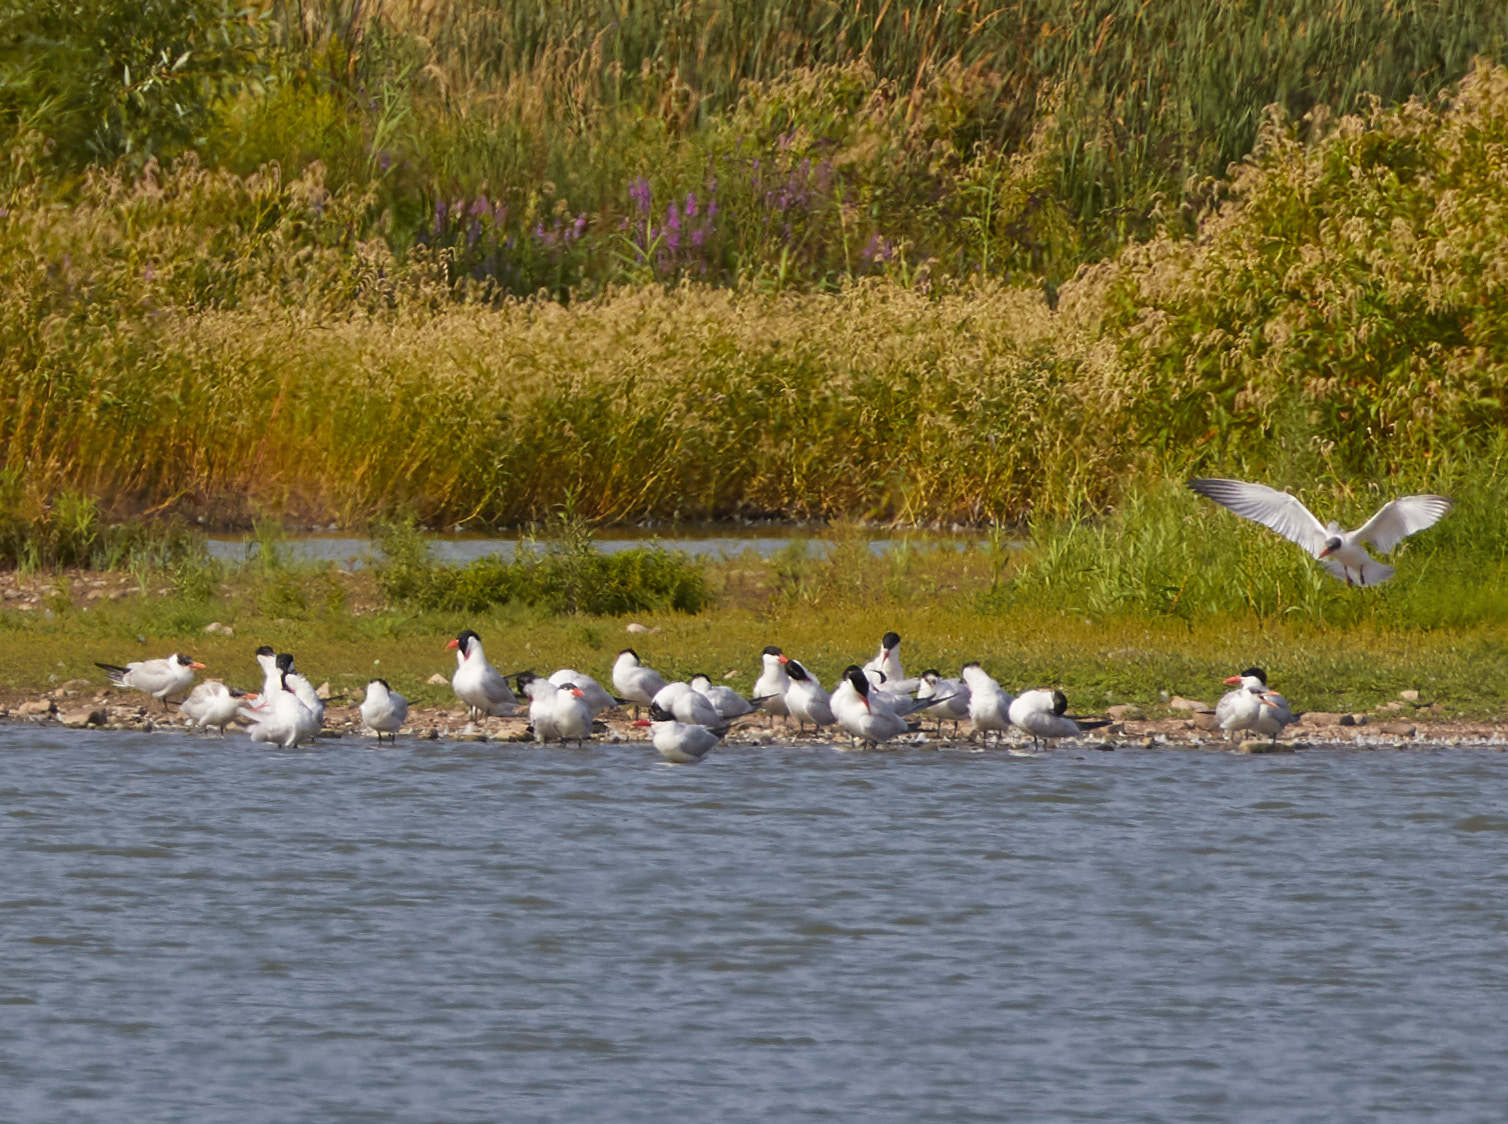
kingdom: Animalia
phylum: Chordata
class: Aves
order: Charadriiformes
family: Laridae
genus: Hydroprogne
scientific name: Hydroprogne caspia
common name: Caspian tern
